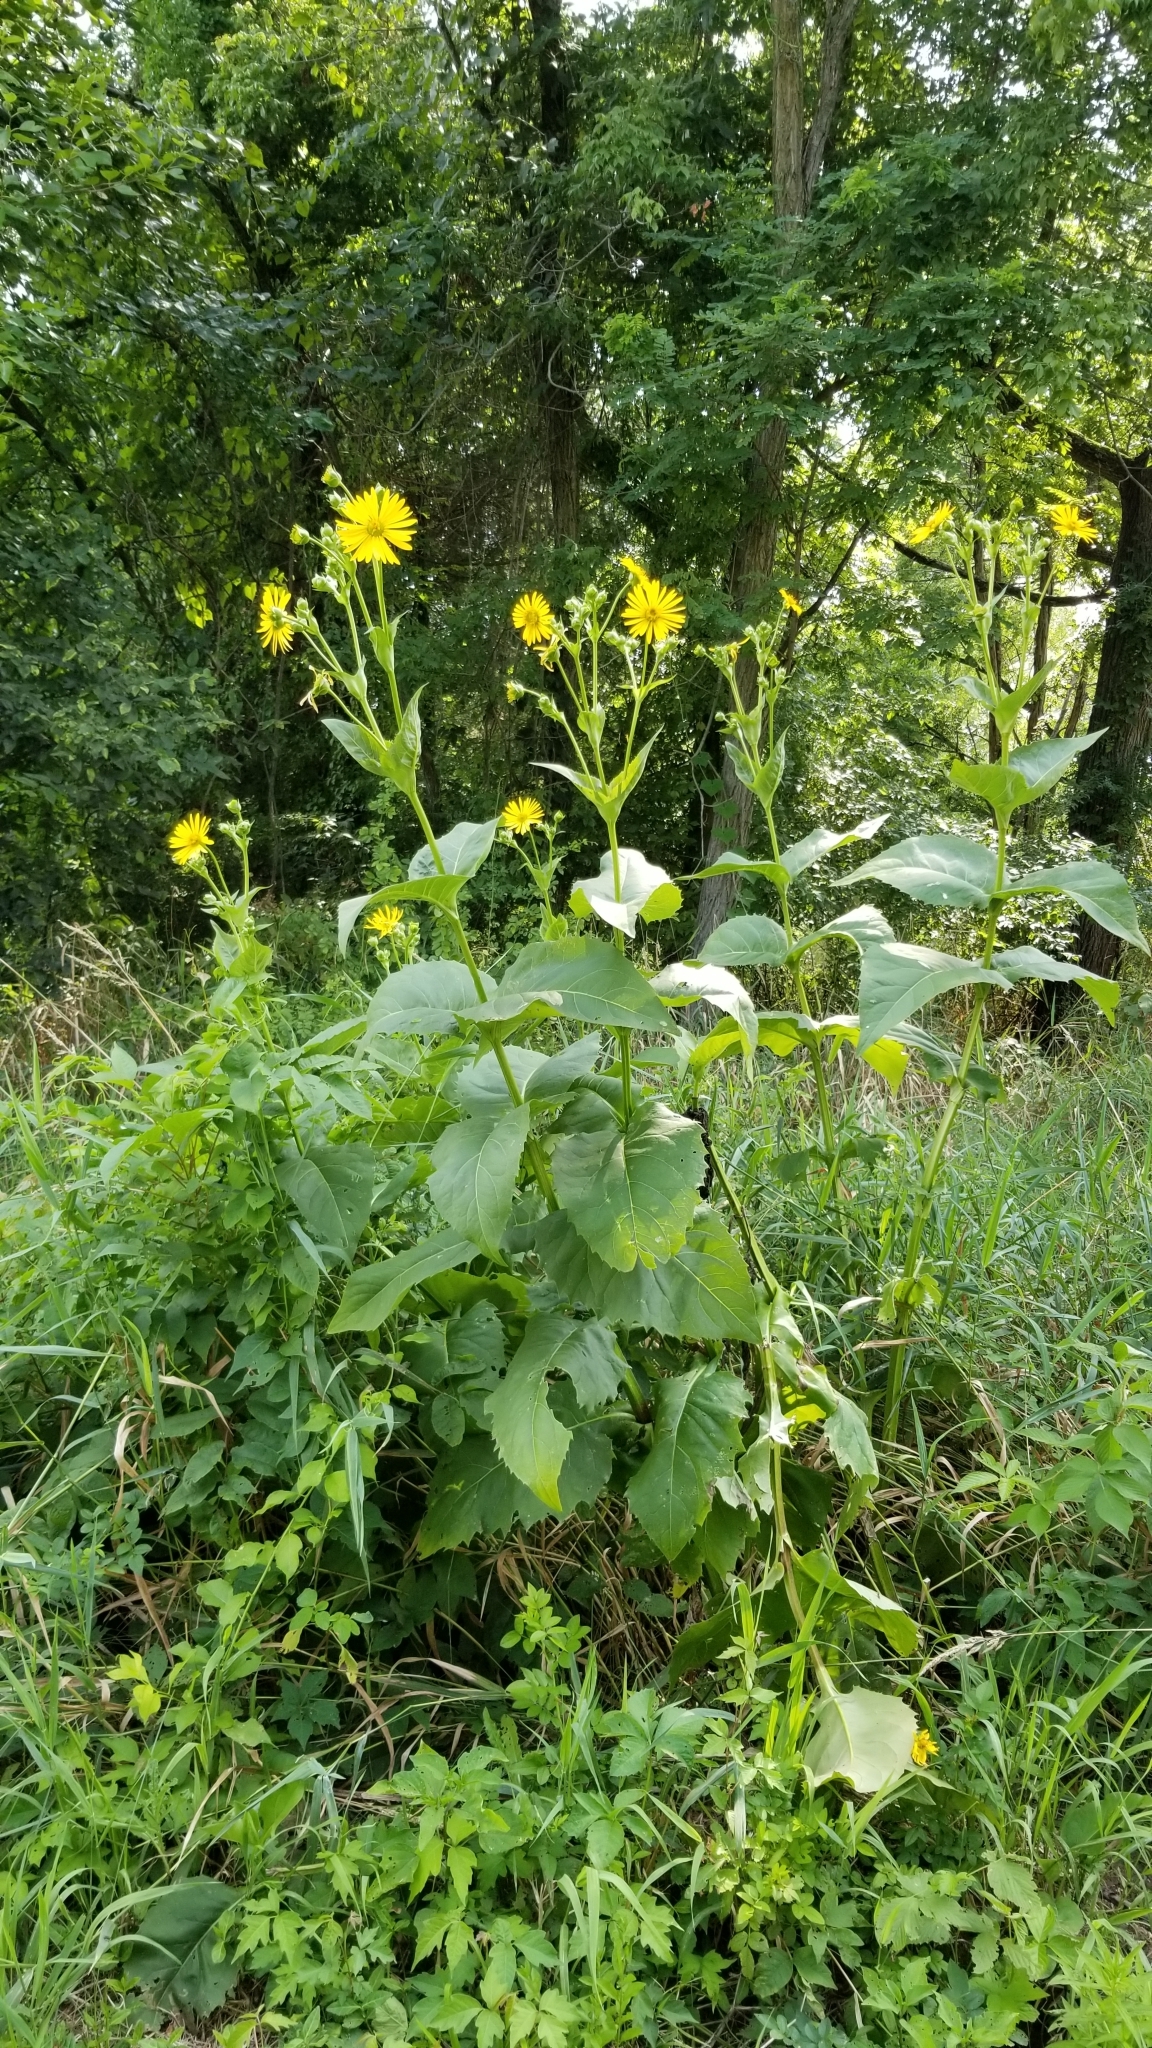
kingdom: Plantae
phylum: Tracheophyta
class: Magnoliopsida
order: Asterales
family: Asteraceae
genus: Silphium
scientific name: Silphium perfoliatum
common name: Cup-plant
